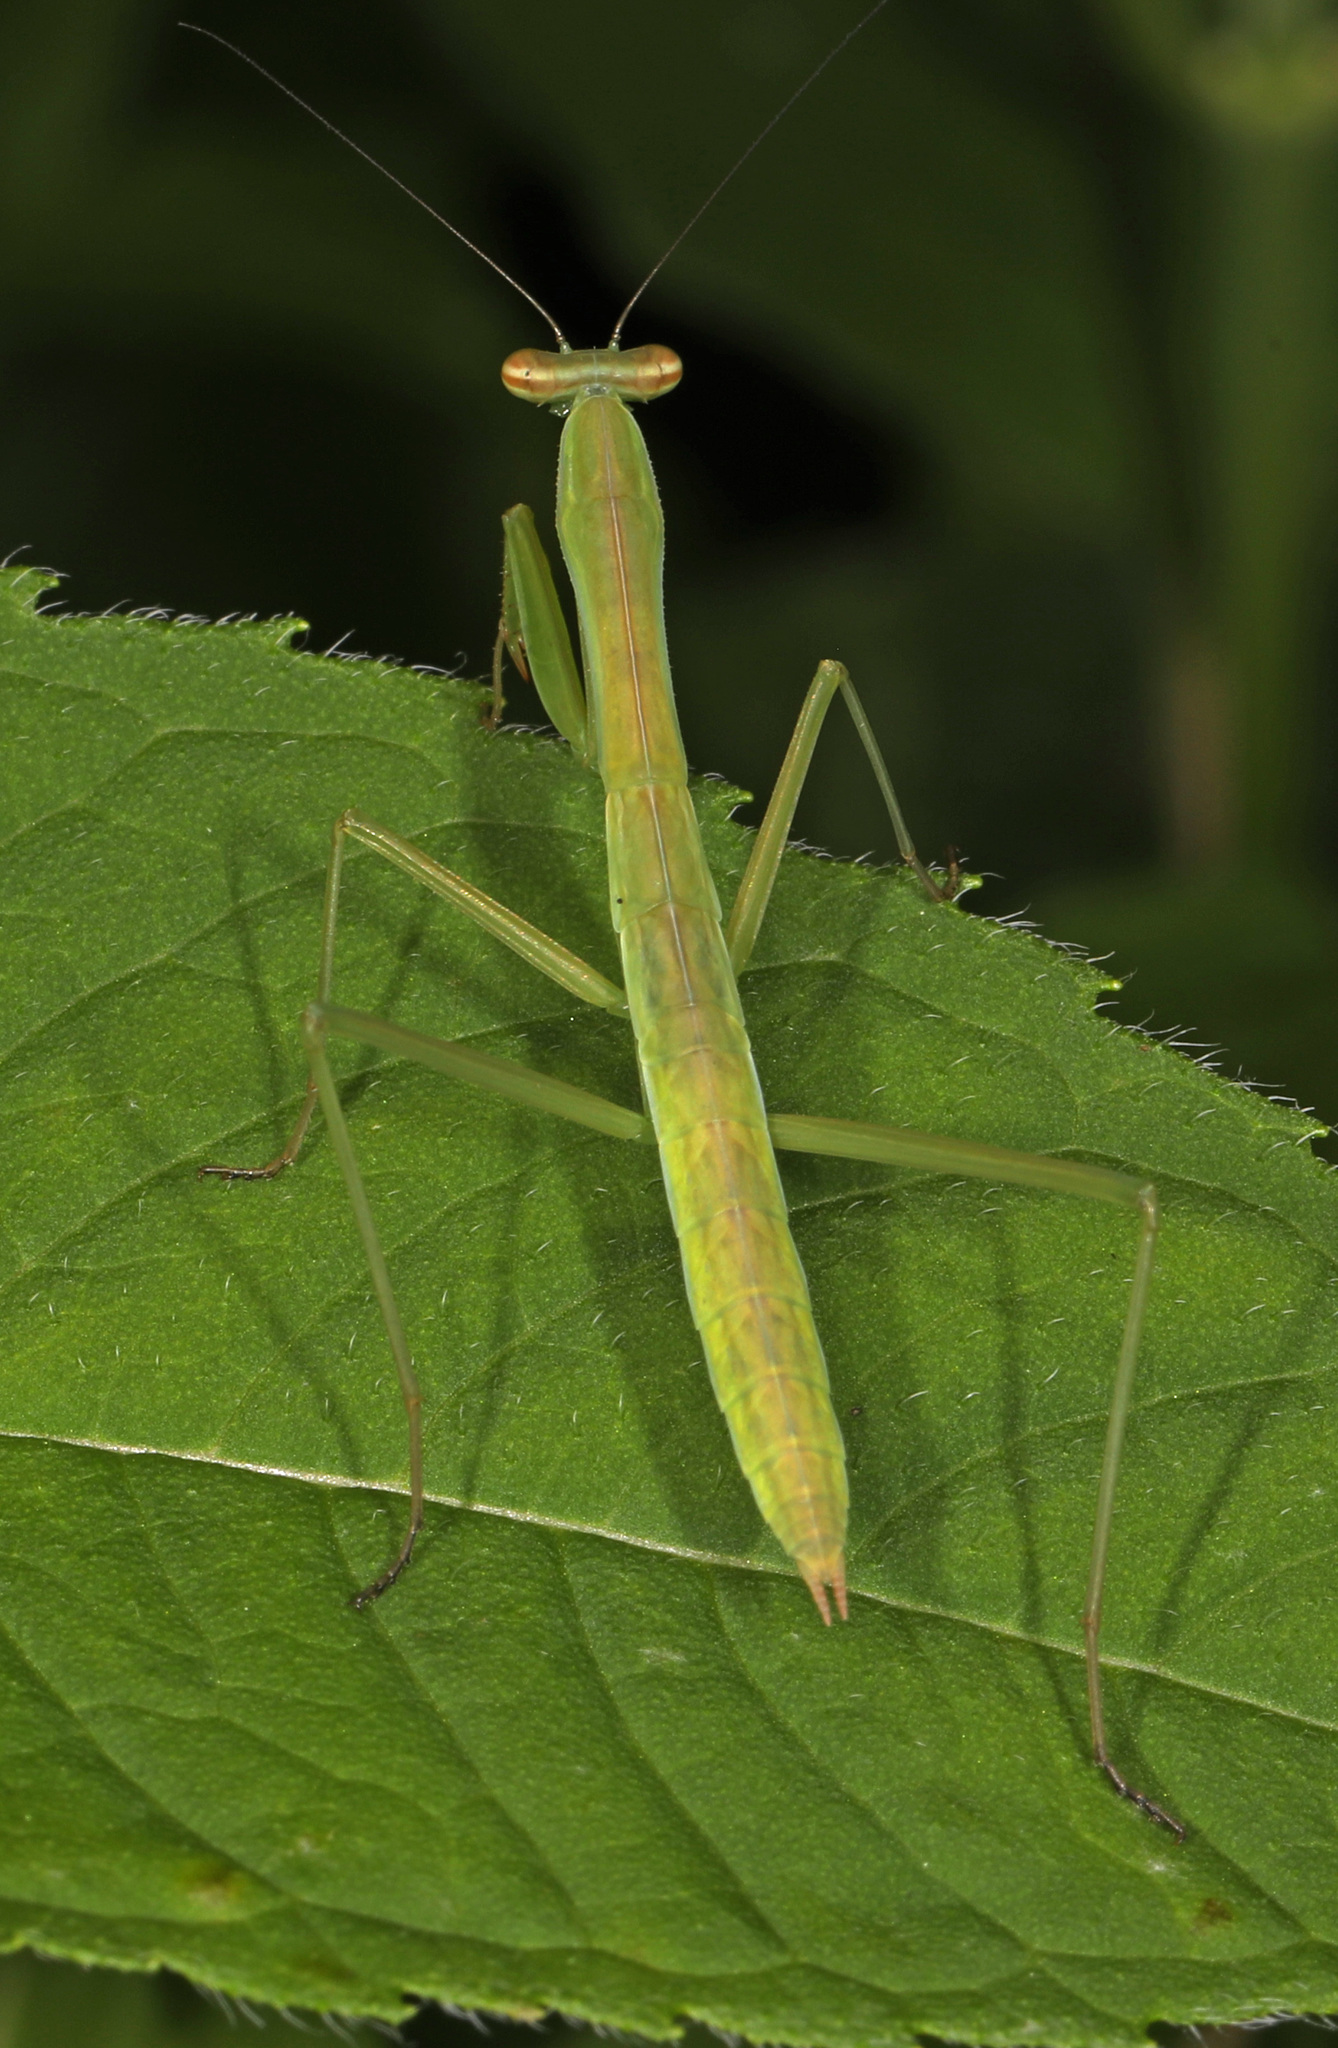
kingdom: Animalia
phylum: Arthropoda
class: Insecta
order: Mantodea
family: Mantidae
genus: Tenodera
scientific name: Tenodera sinensis
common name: Chinese mantis
